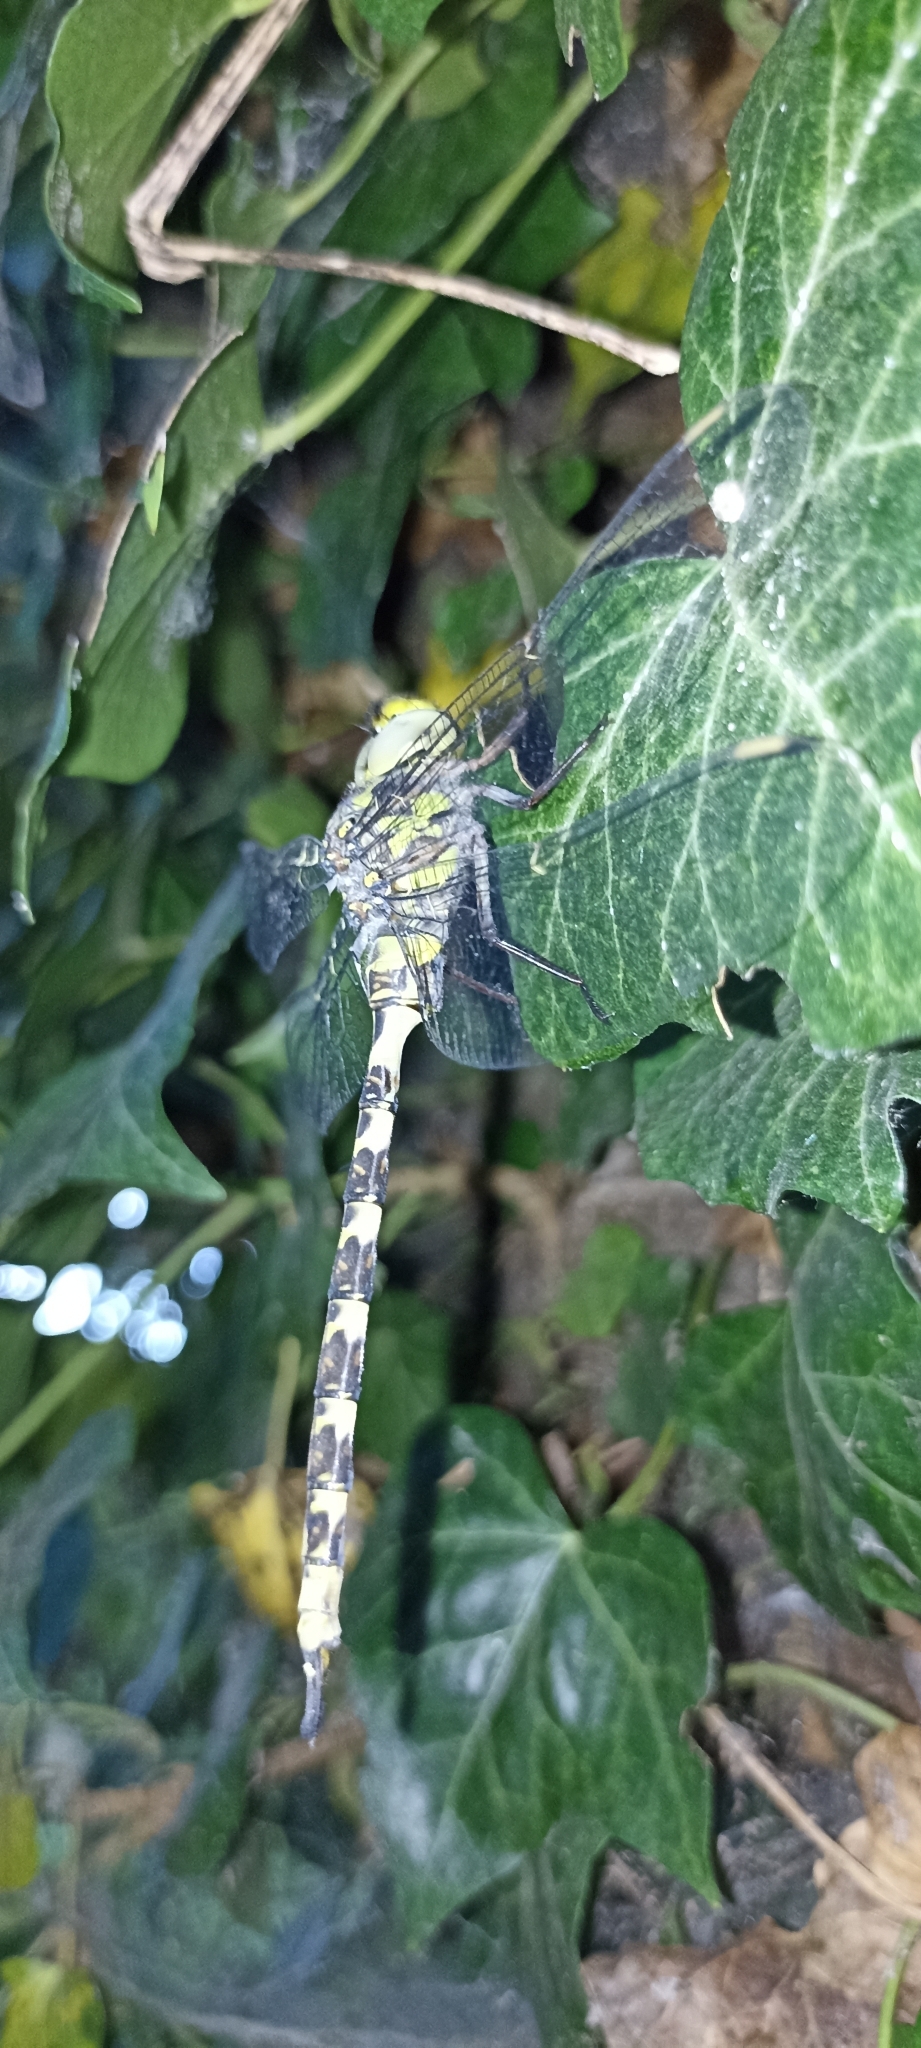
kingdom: Animalia
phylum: Arthropoda
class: Insecta
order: Odonata
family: Aeshnidae
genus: Boyeria
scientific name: Boyeria irene
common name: Western spectre
